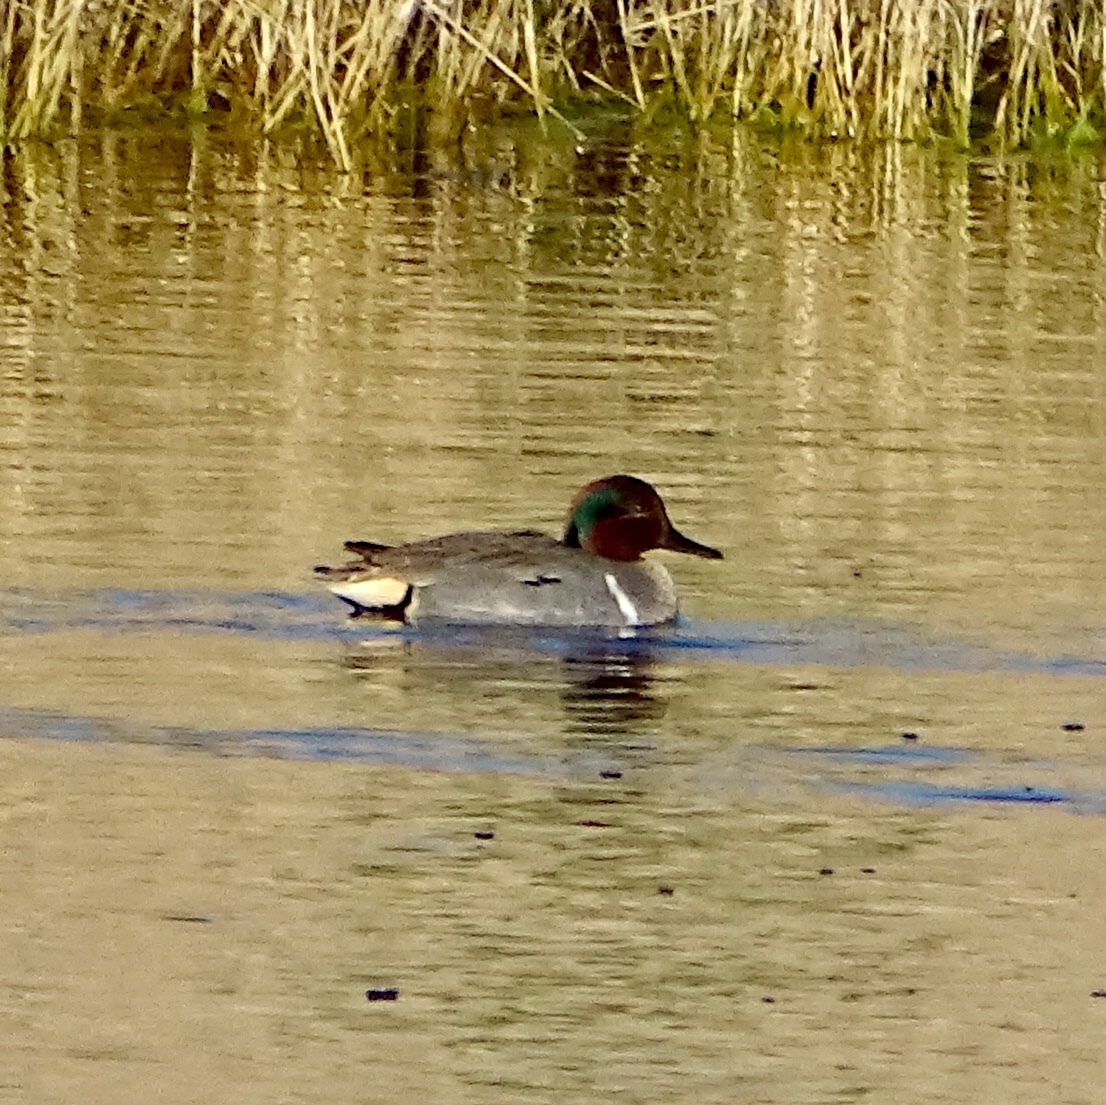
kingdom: Animalia
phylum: Chordata
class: Aves
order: Anseriformes
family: Anatidae
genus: Anas
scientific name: Anas crecca
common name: Eurasian teal
